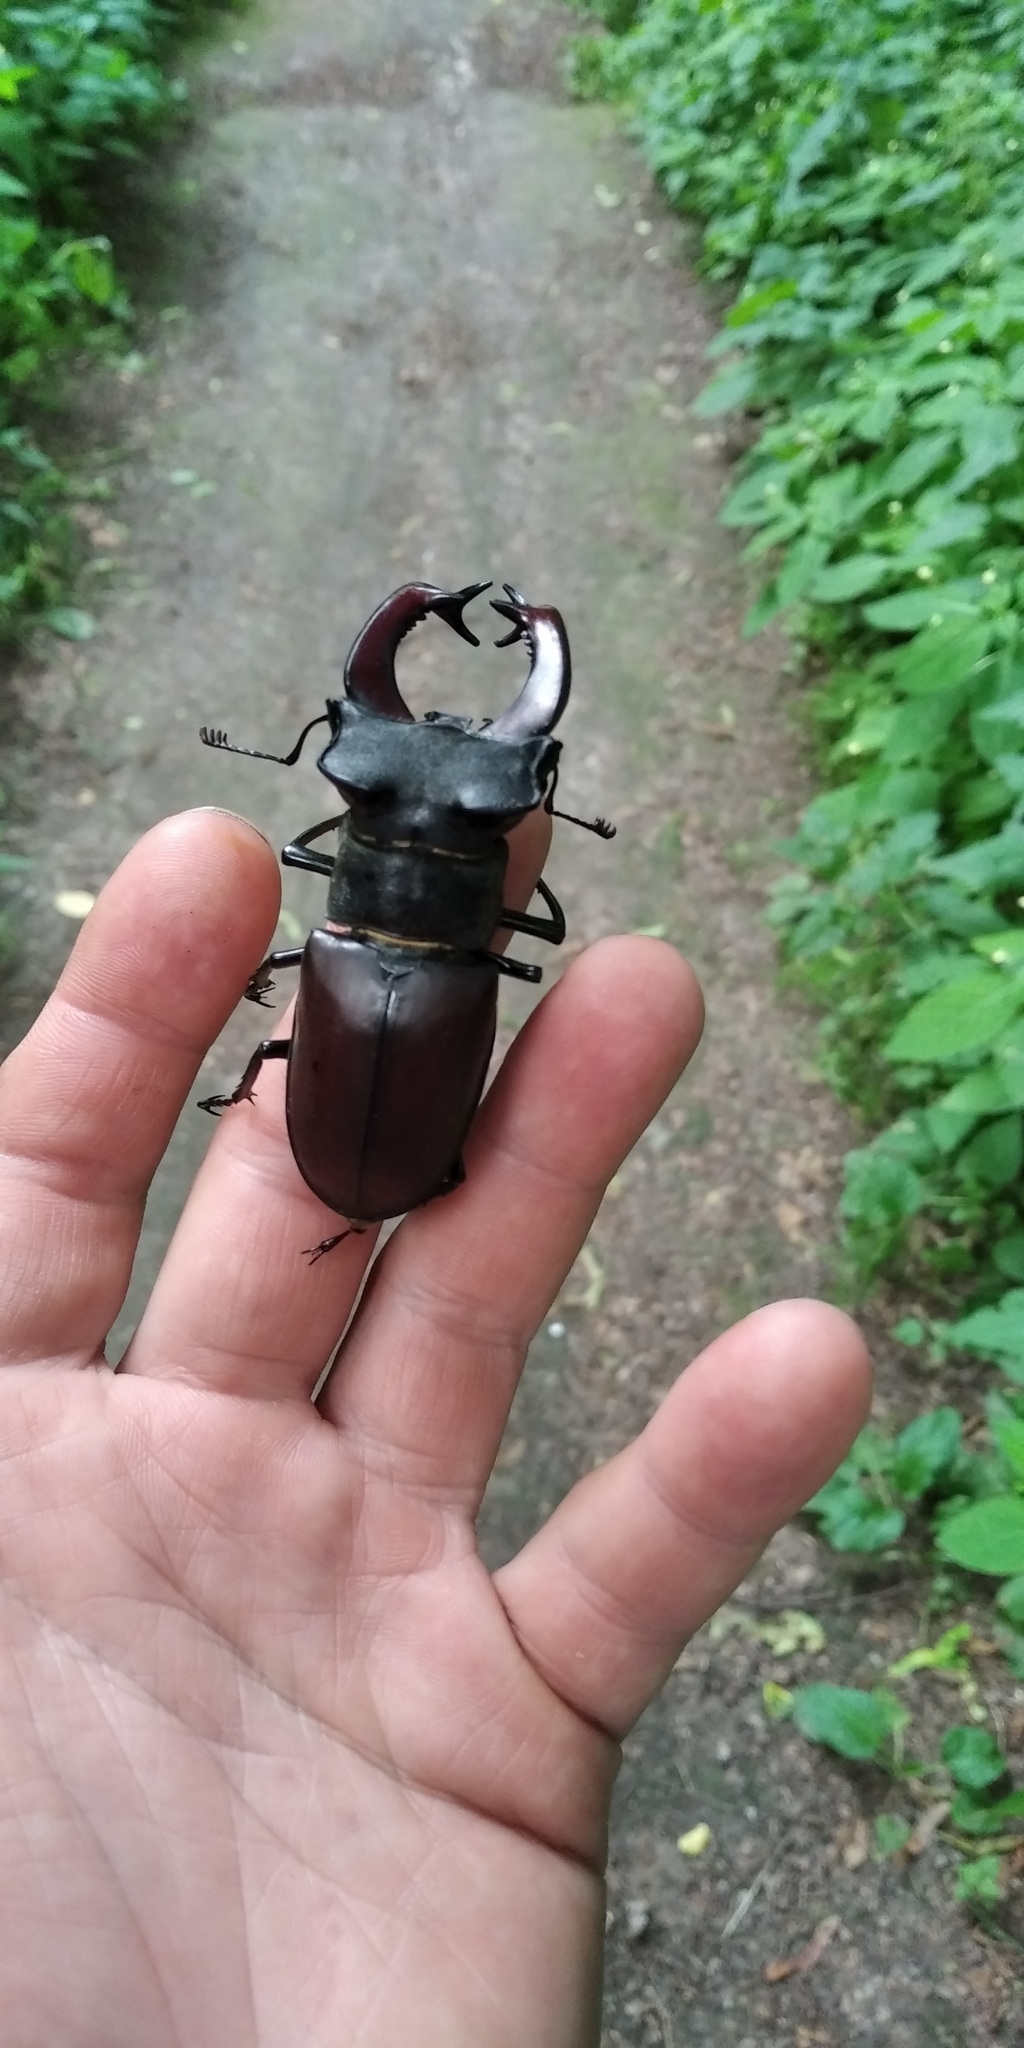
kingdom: Animalia
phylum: Arthropoda
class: Insecta
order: Coleoptera
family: Lucanidae
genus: Lucanus
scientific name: Lucanus cervus
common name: Stag beetle
